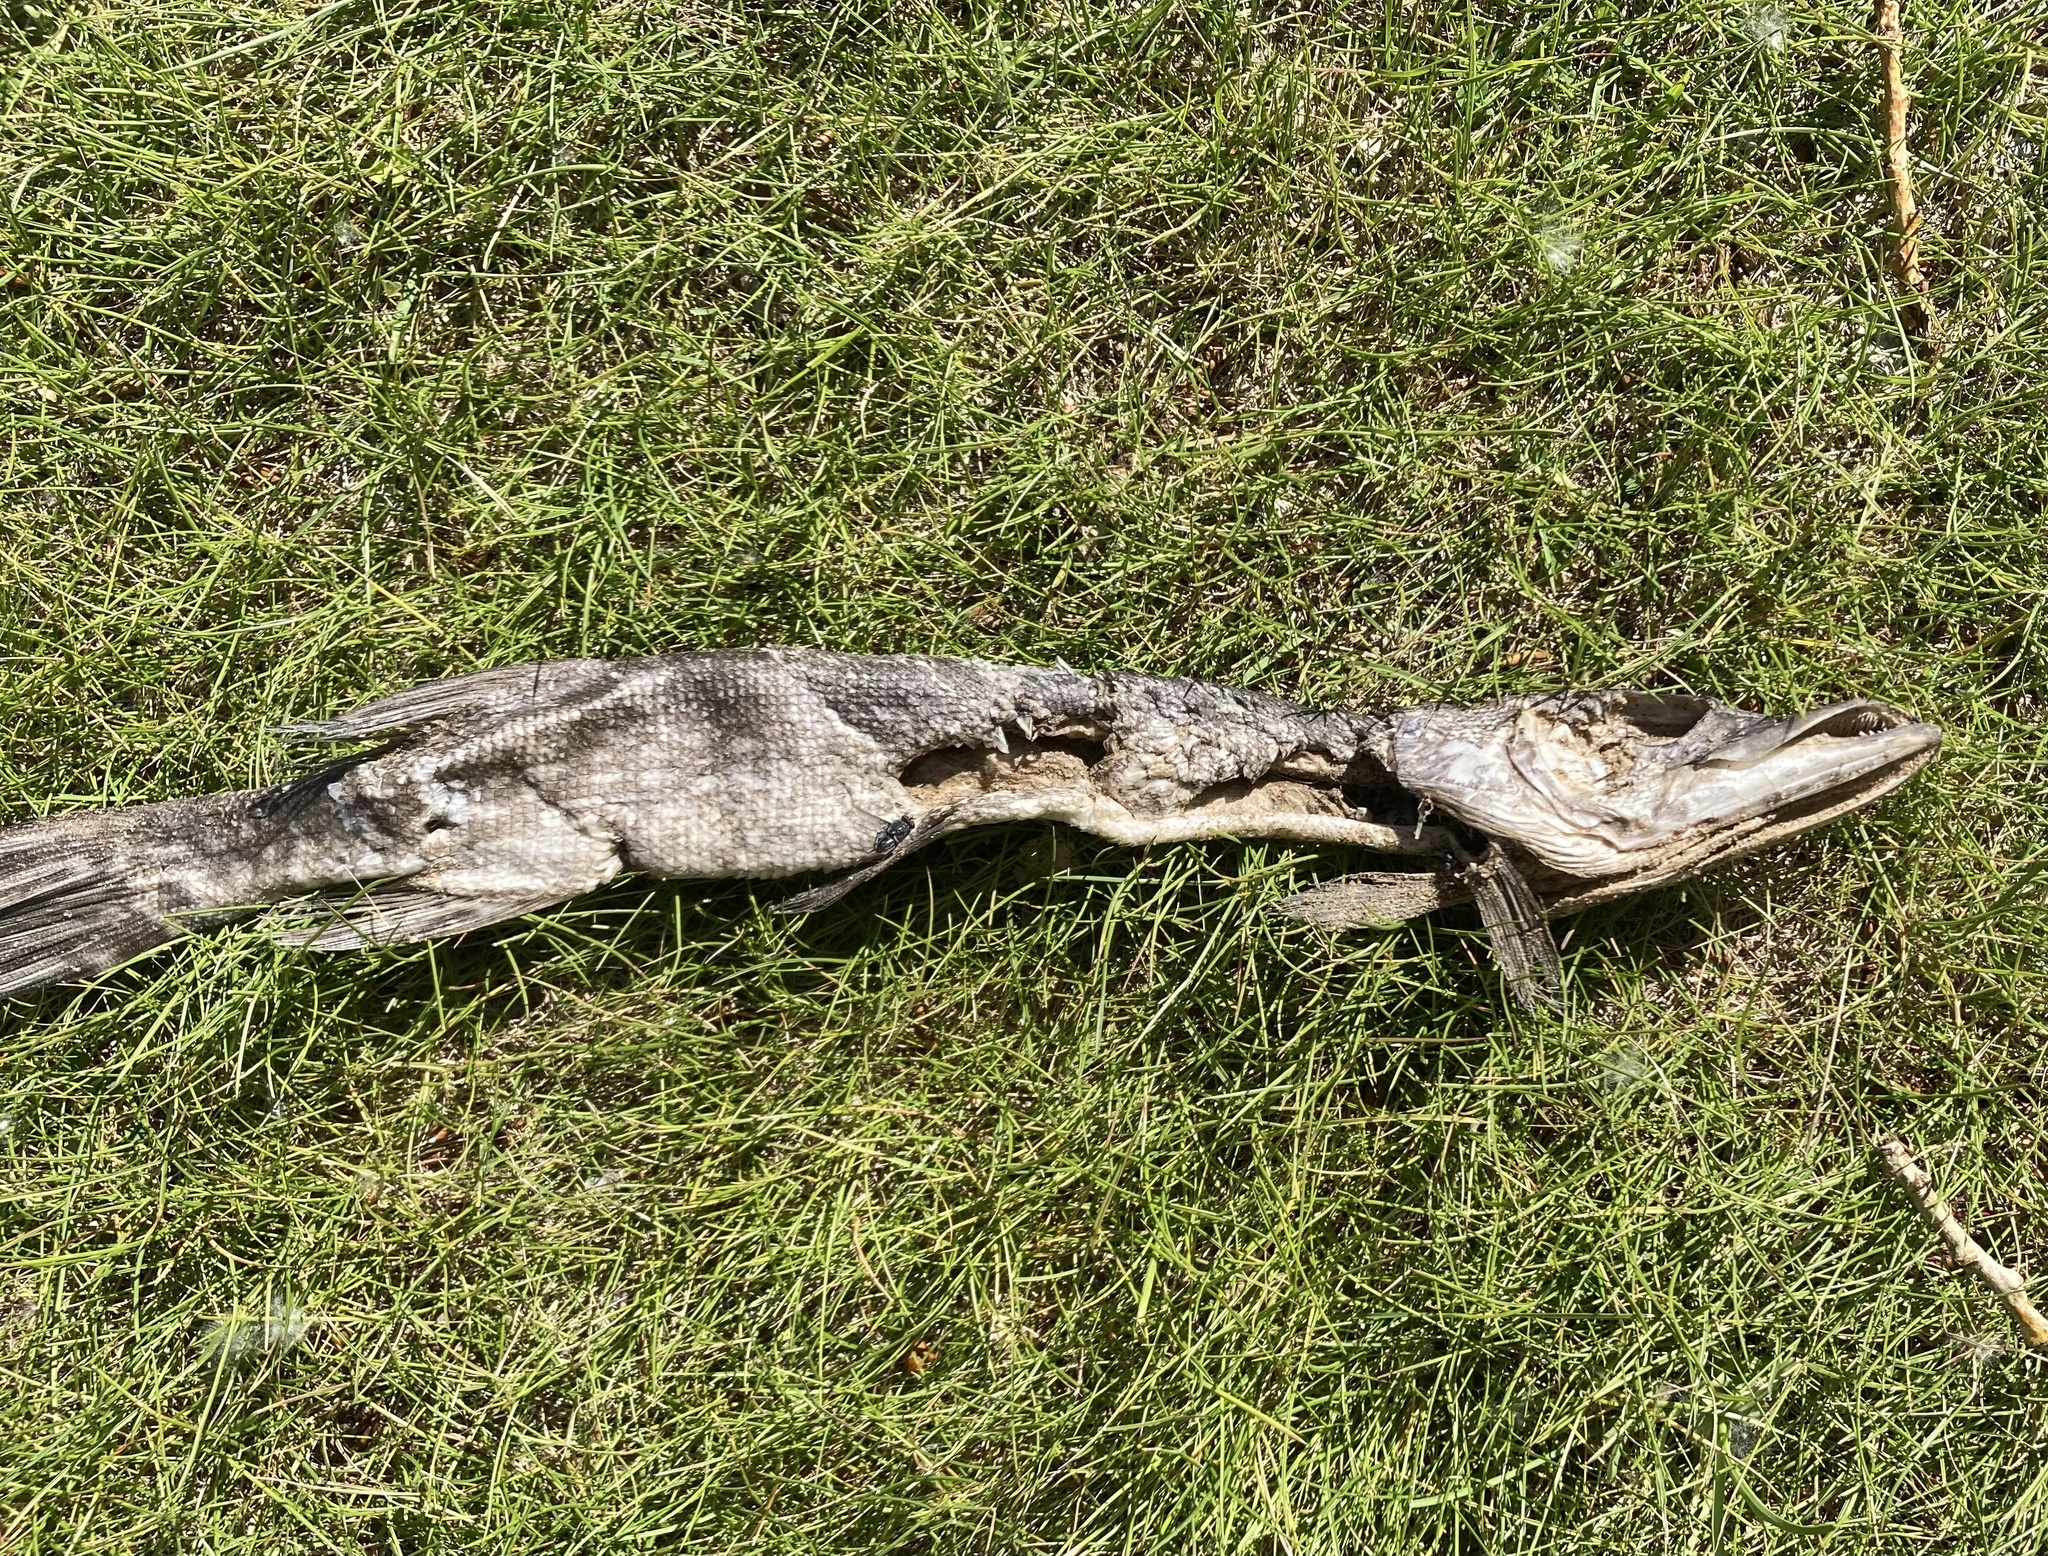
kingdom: Animalia
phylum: Chordata
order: Esociformes
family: Esocidae
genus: Esox
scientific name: Esox lucius
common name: Northern pike
